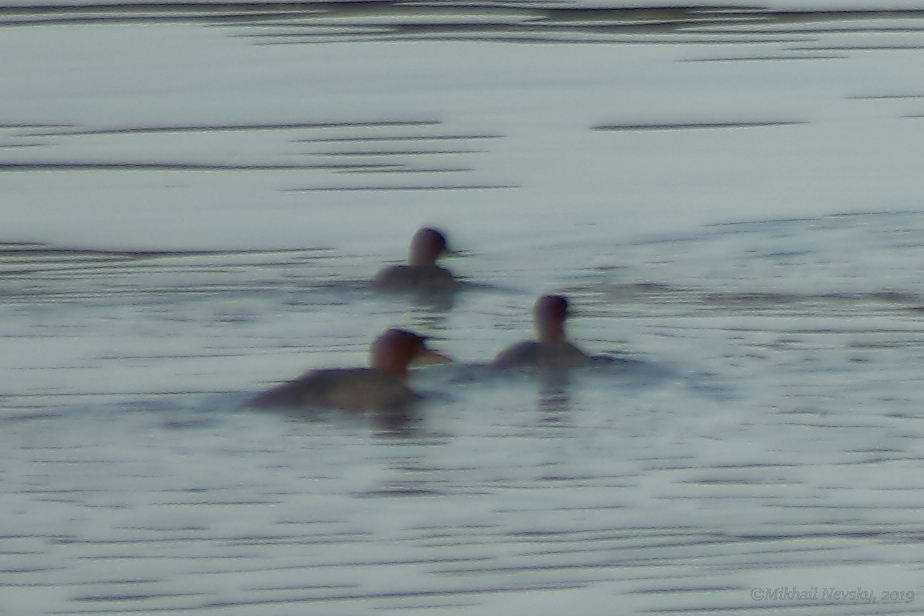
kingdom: Animalia
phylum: Chordata
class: Aves
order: Anseriformes
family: Anatidae
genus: Mergus
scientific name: Mergus merganser
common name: Common merganser
